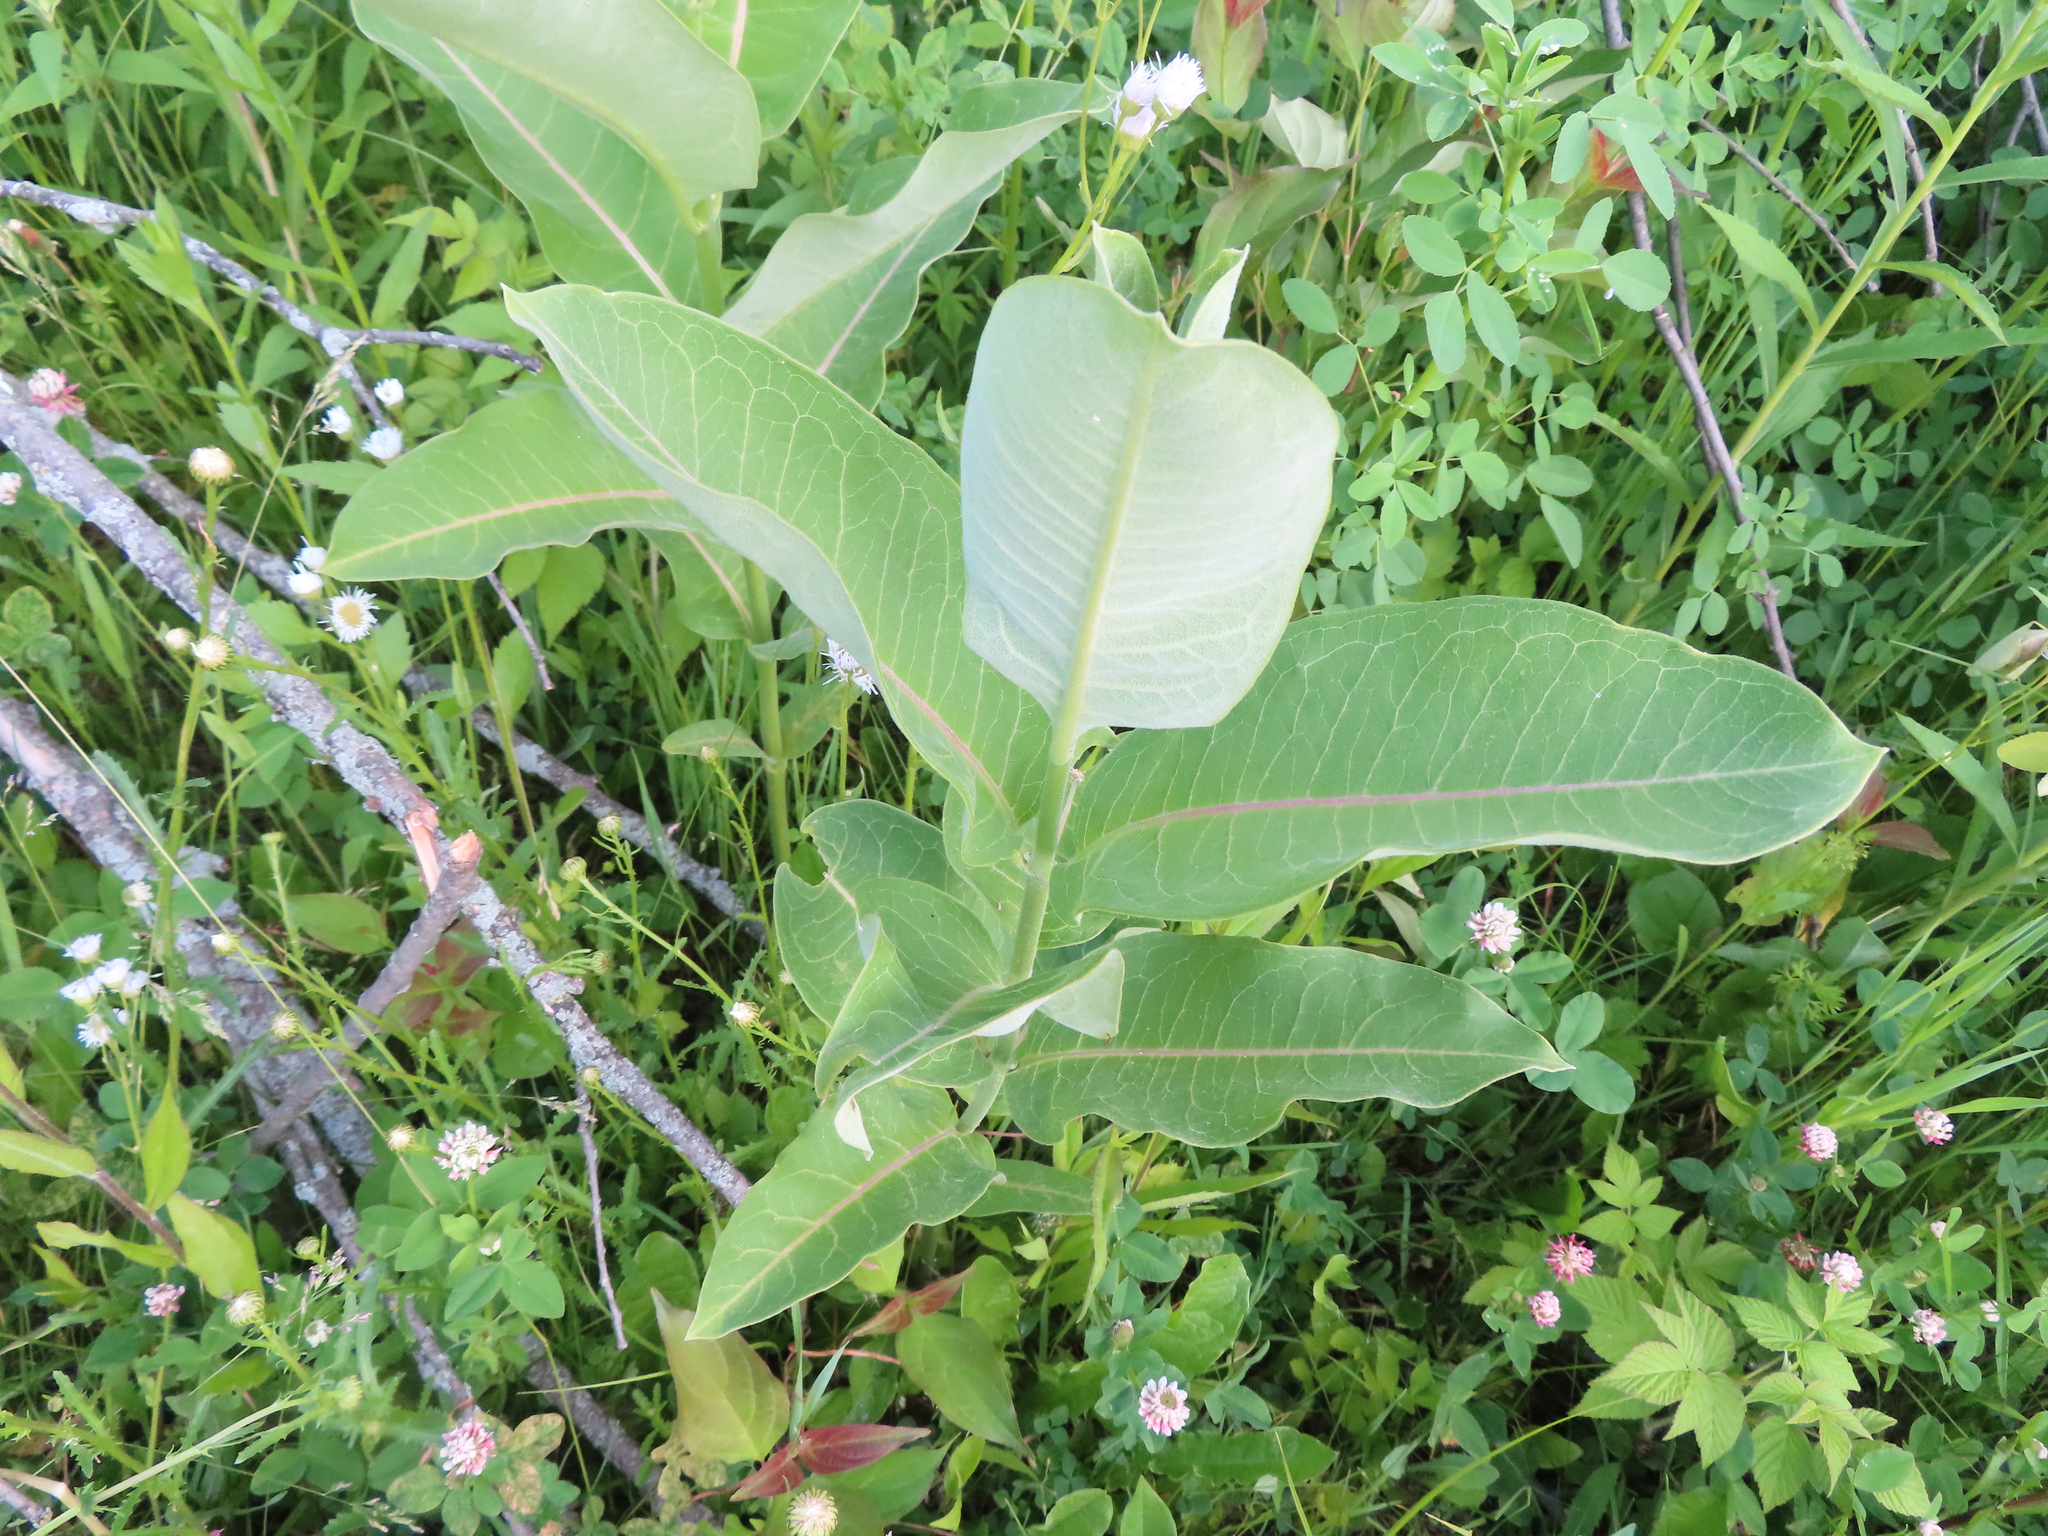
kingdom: Plantae
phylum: Tracheophyta
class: Magnoliopsida
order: Gentianales
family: Apocynaceae
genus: Asclepias
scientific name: Asclepias syriaca
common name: Common milkweed
